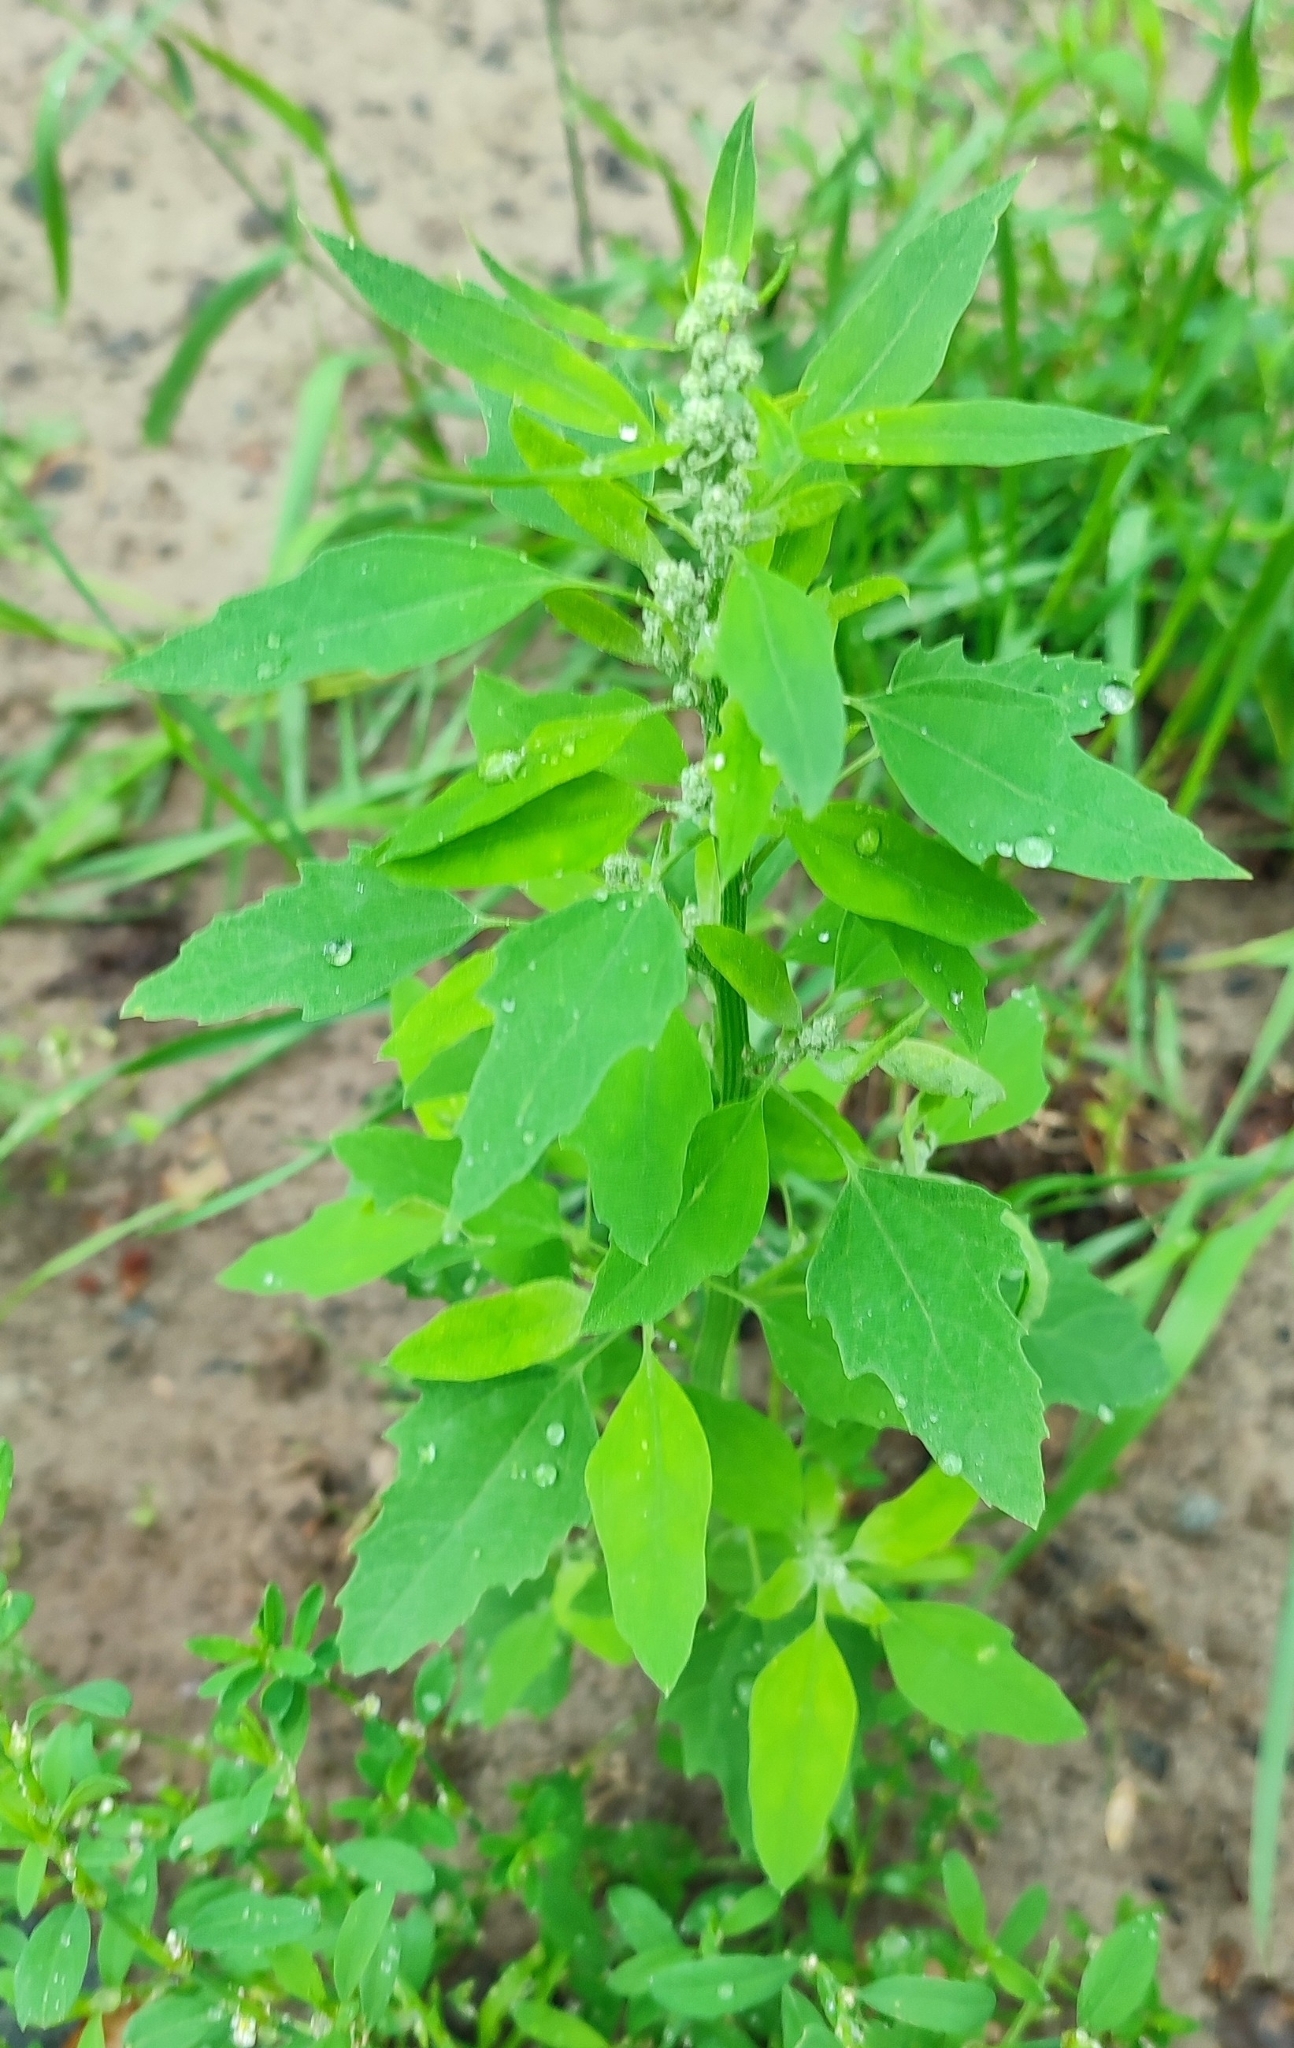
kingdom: Plantae
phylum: Tracheophyta
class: Magnoliopsida
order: Caryophyllales
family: Amaranthaceae
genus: Chenopodium
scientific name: Chenopodium album
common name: Fat-hen
